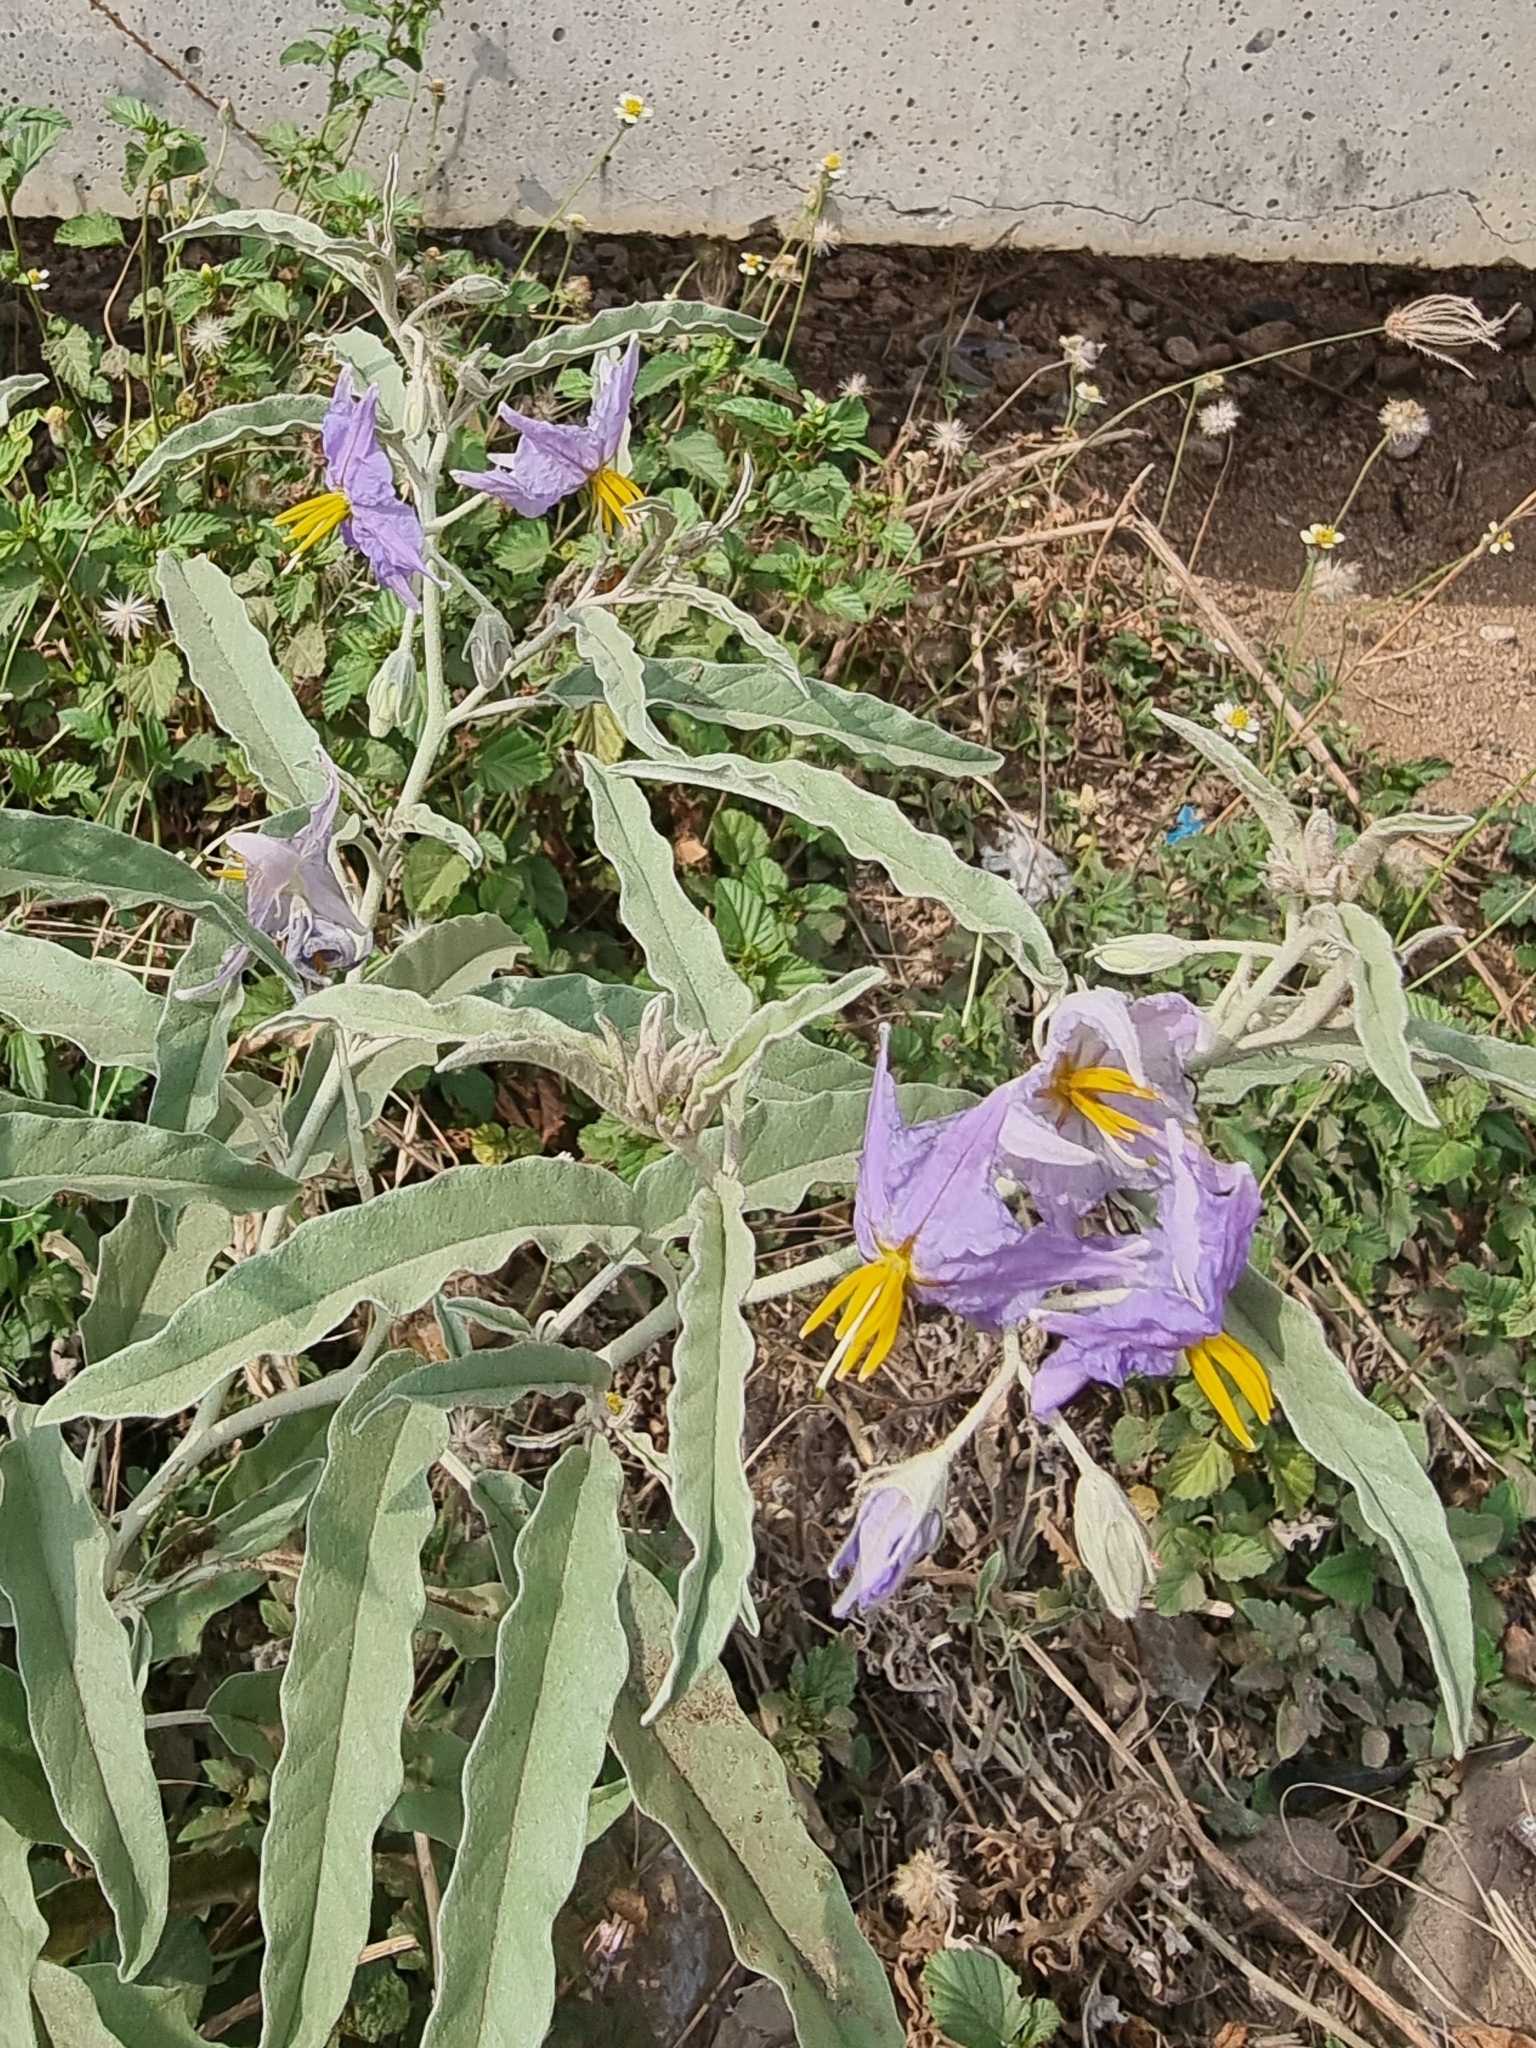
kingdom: Plantae
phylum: Tracheophyta
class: Magnoliopsida
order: Solanales
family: Solanaceae
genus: Solanum
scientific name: Solanum elaeagnifolium
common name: Silverleaf nightshade
